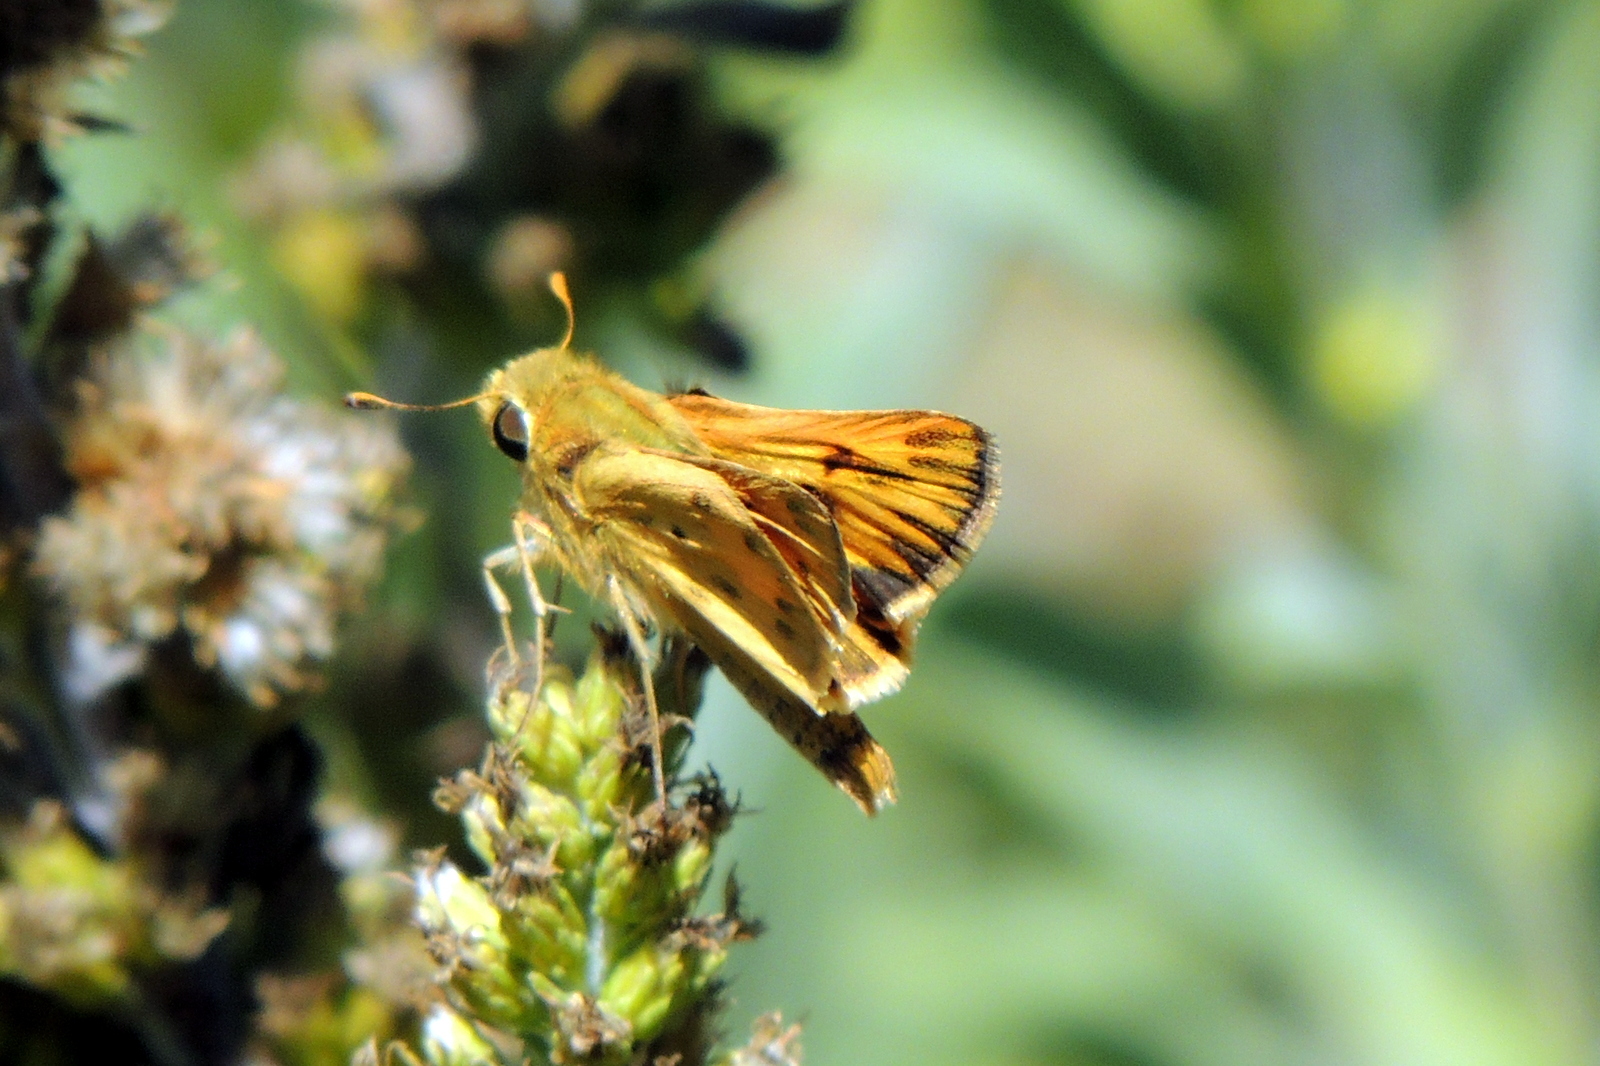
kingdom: Animalia
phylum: Arthropoda
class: Insecta
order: Lepidoptera
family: Hesperiidae
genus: Hylephila
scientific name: Hylephila phyleus
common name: Fiery skipper
